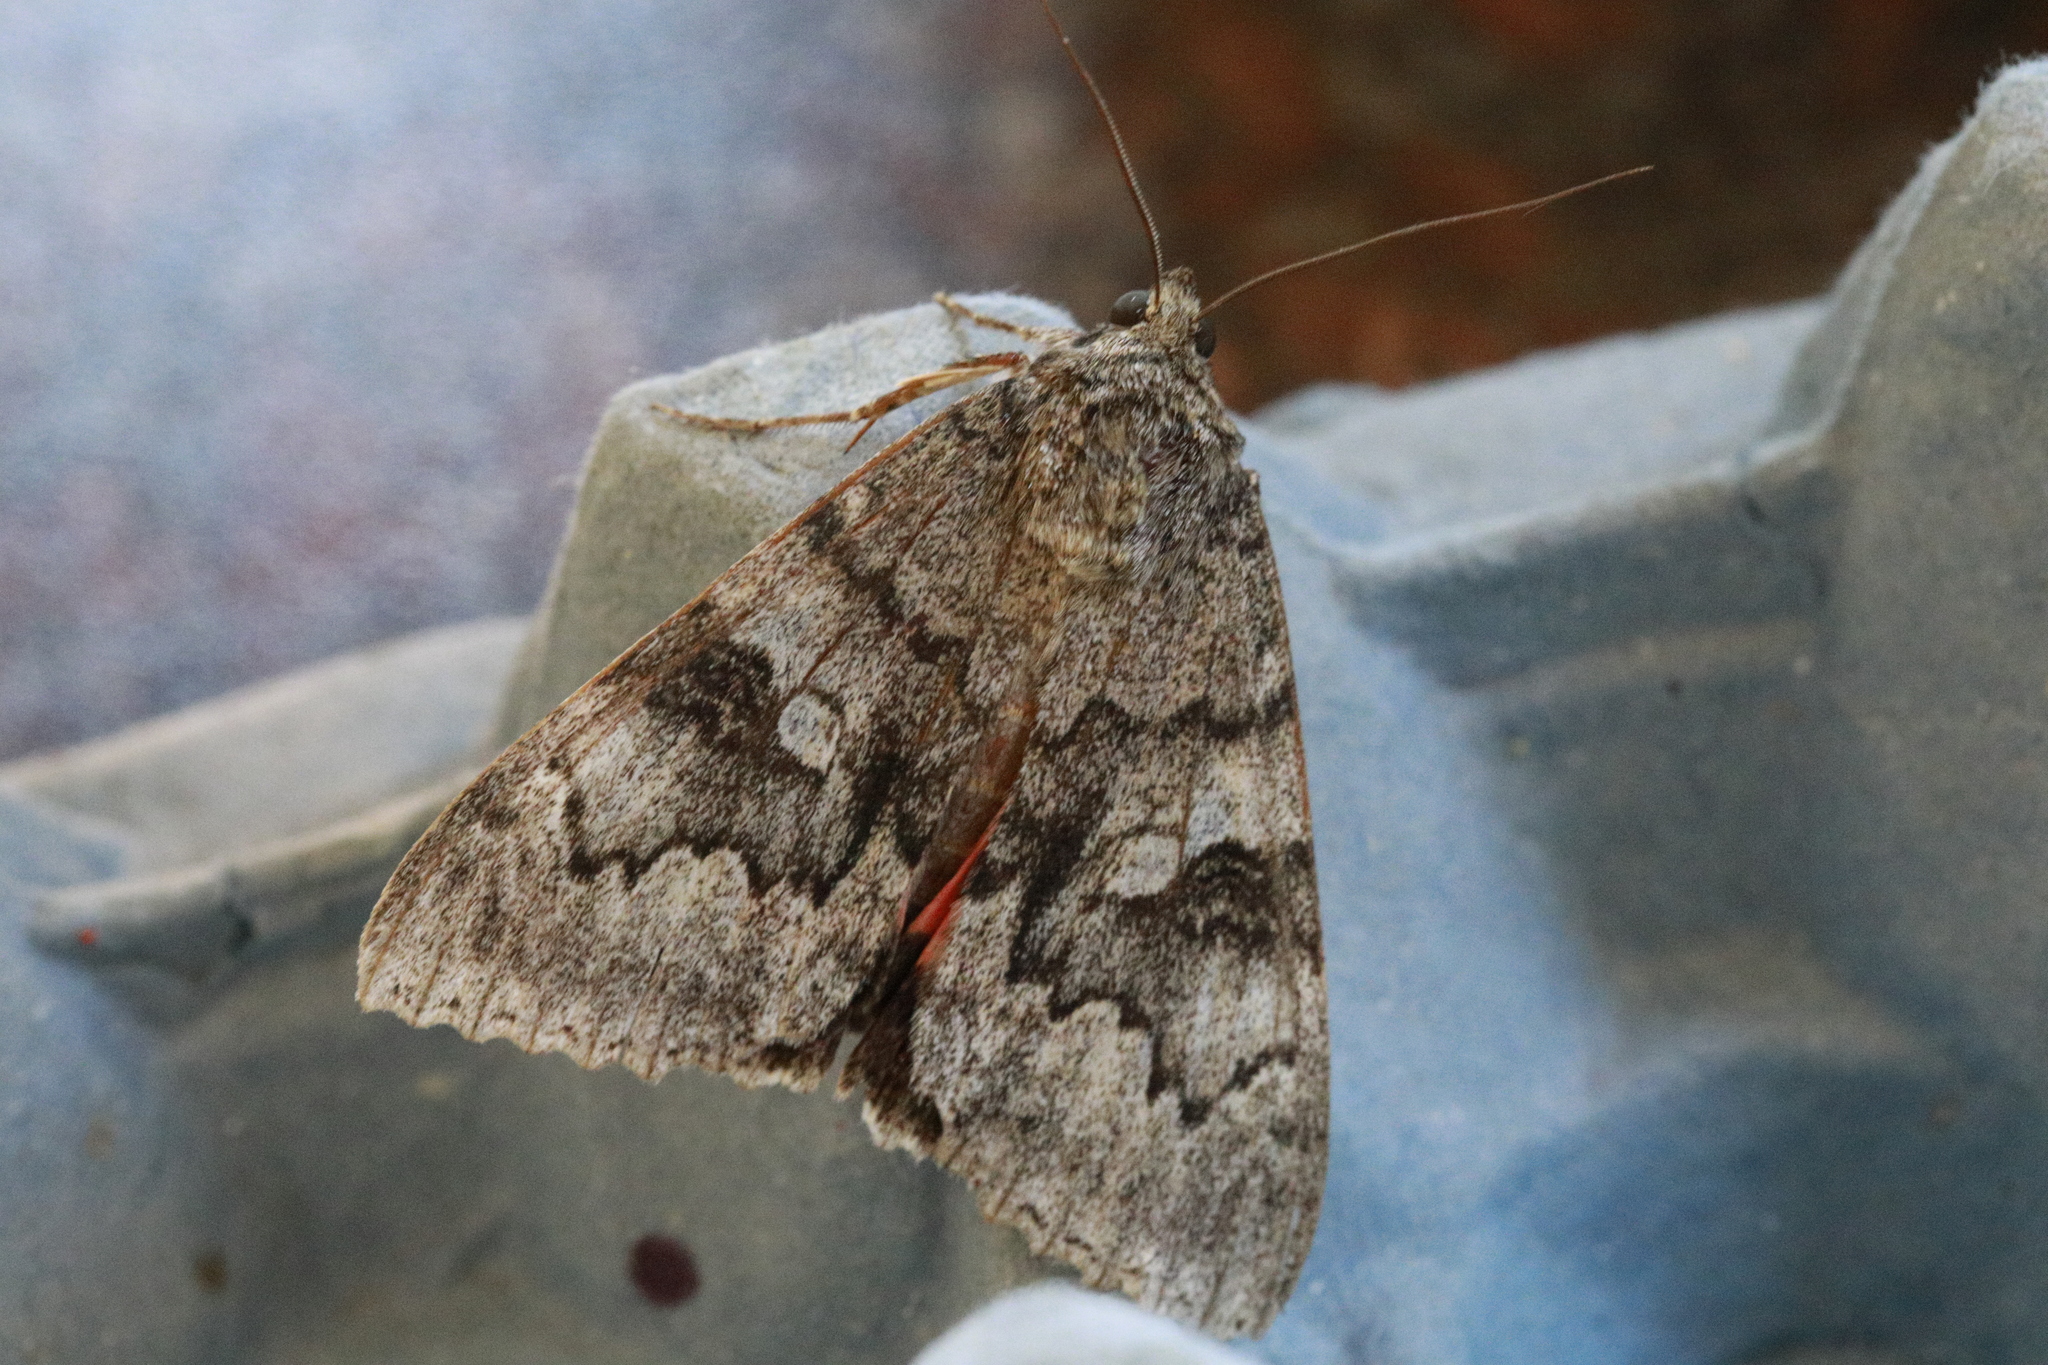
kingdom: Animalia
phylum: Arthropoda
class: Insecta
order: Lepidoptera
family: Erebidae
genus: Catocala
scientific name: Catocala nupta
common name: Red underwing
